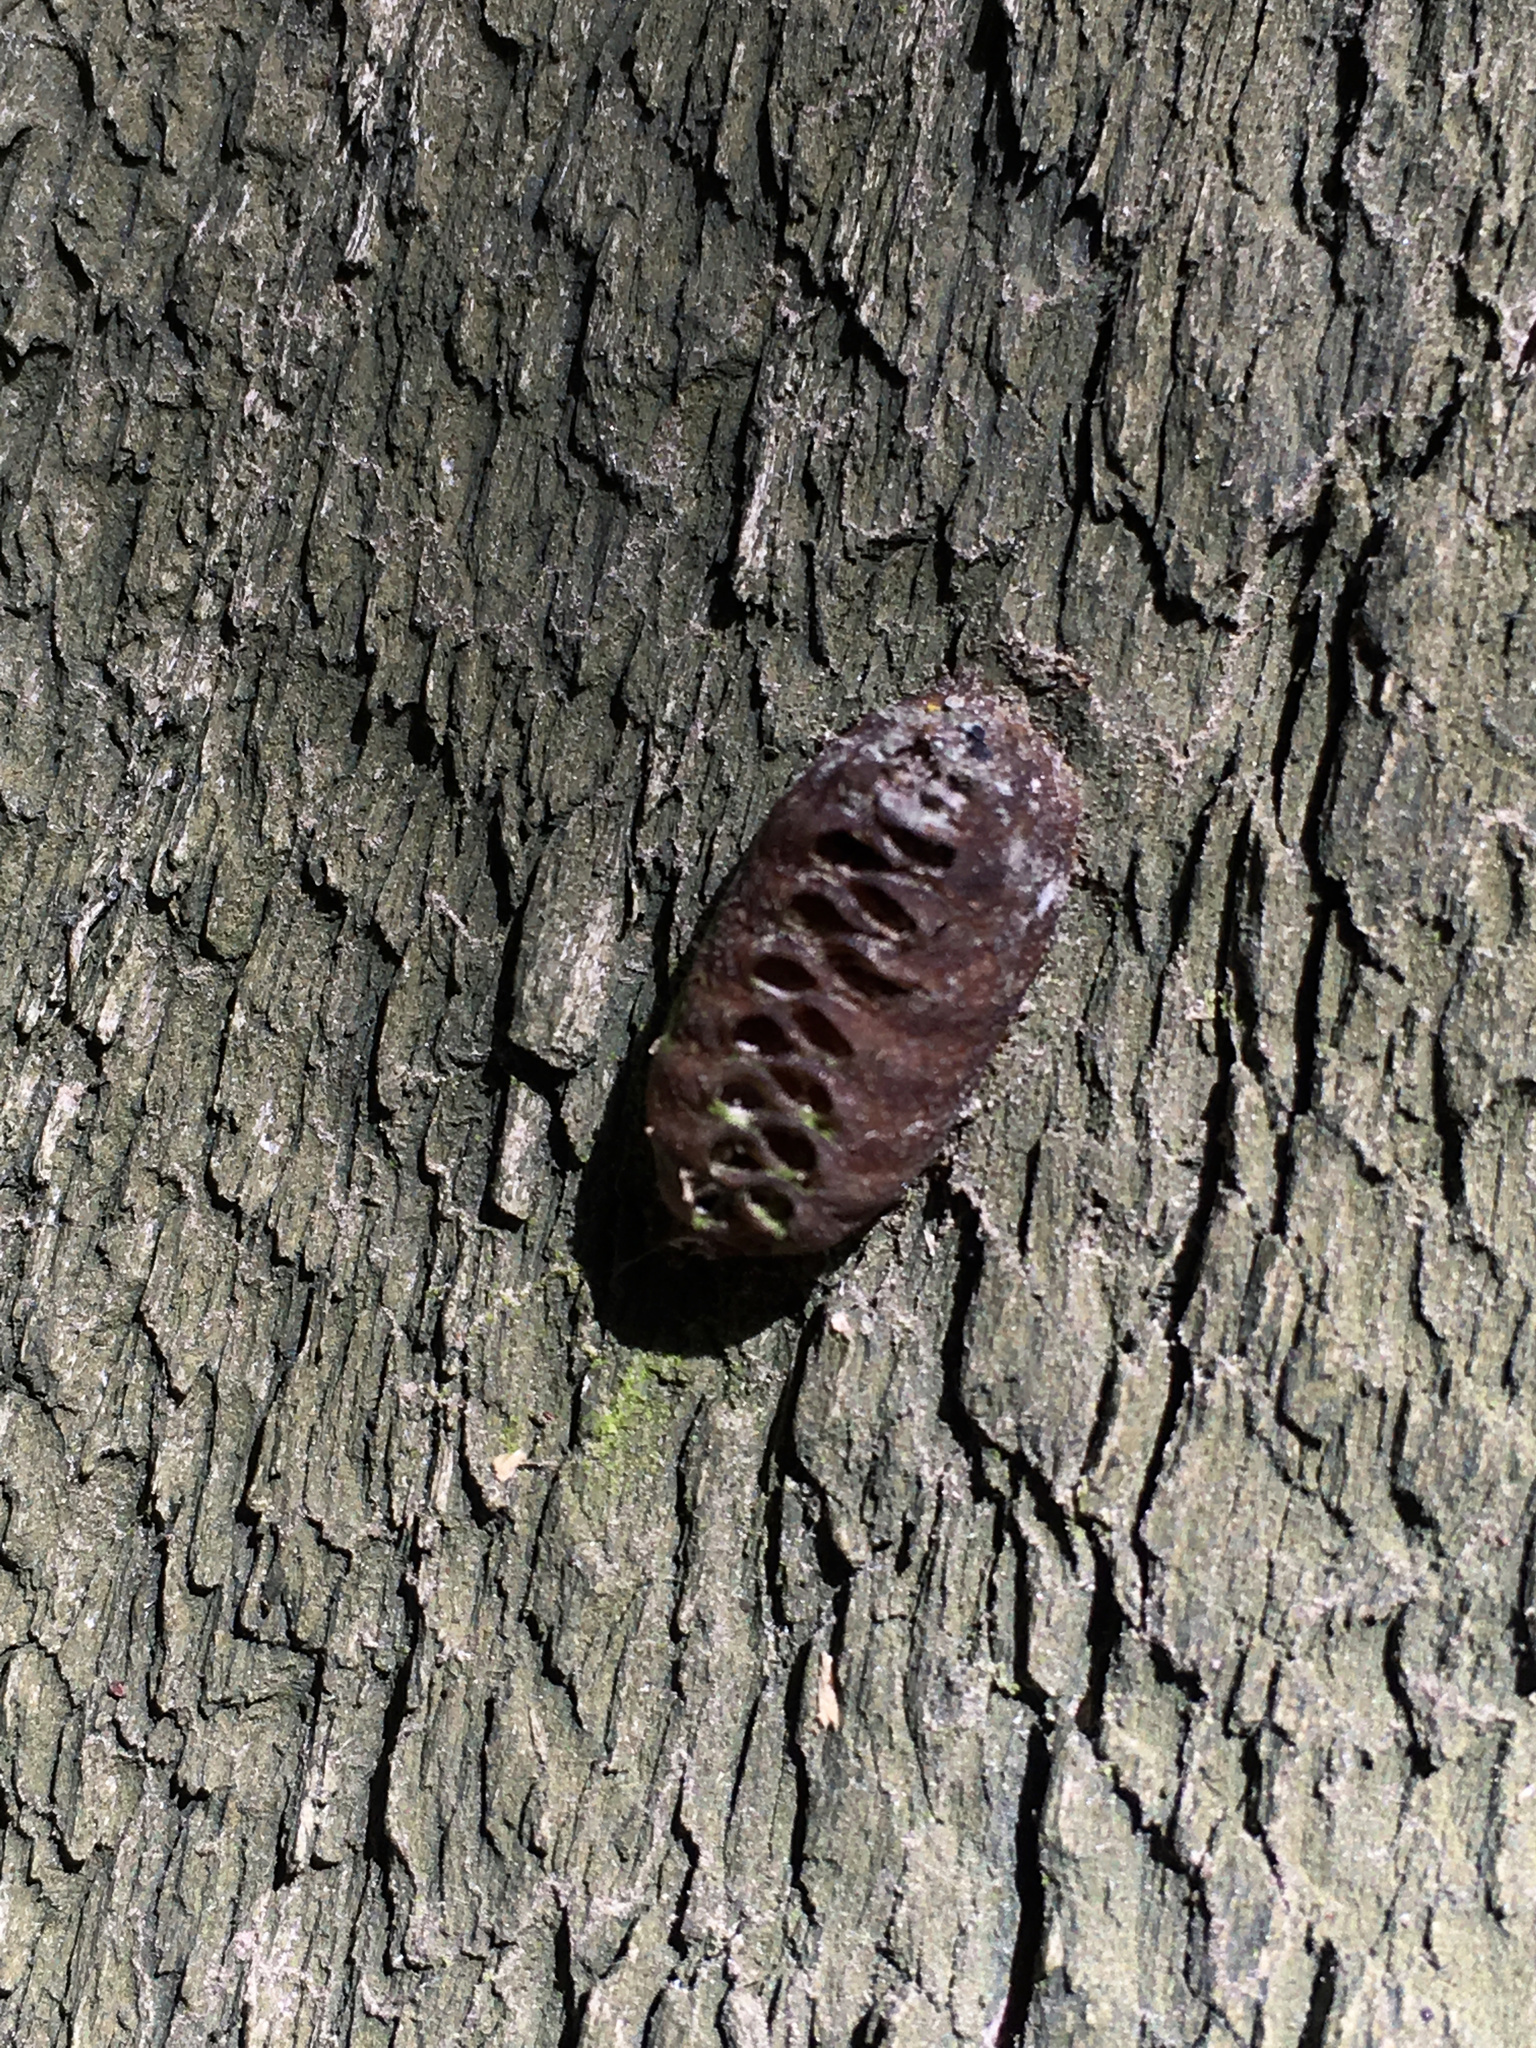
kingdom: Animalia
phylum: Arthropoda
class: Insecta
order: Mantodea
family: Mantidae
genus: Orthodera
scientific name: Orthodera novaezealandiae
